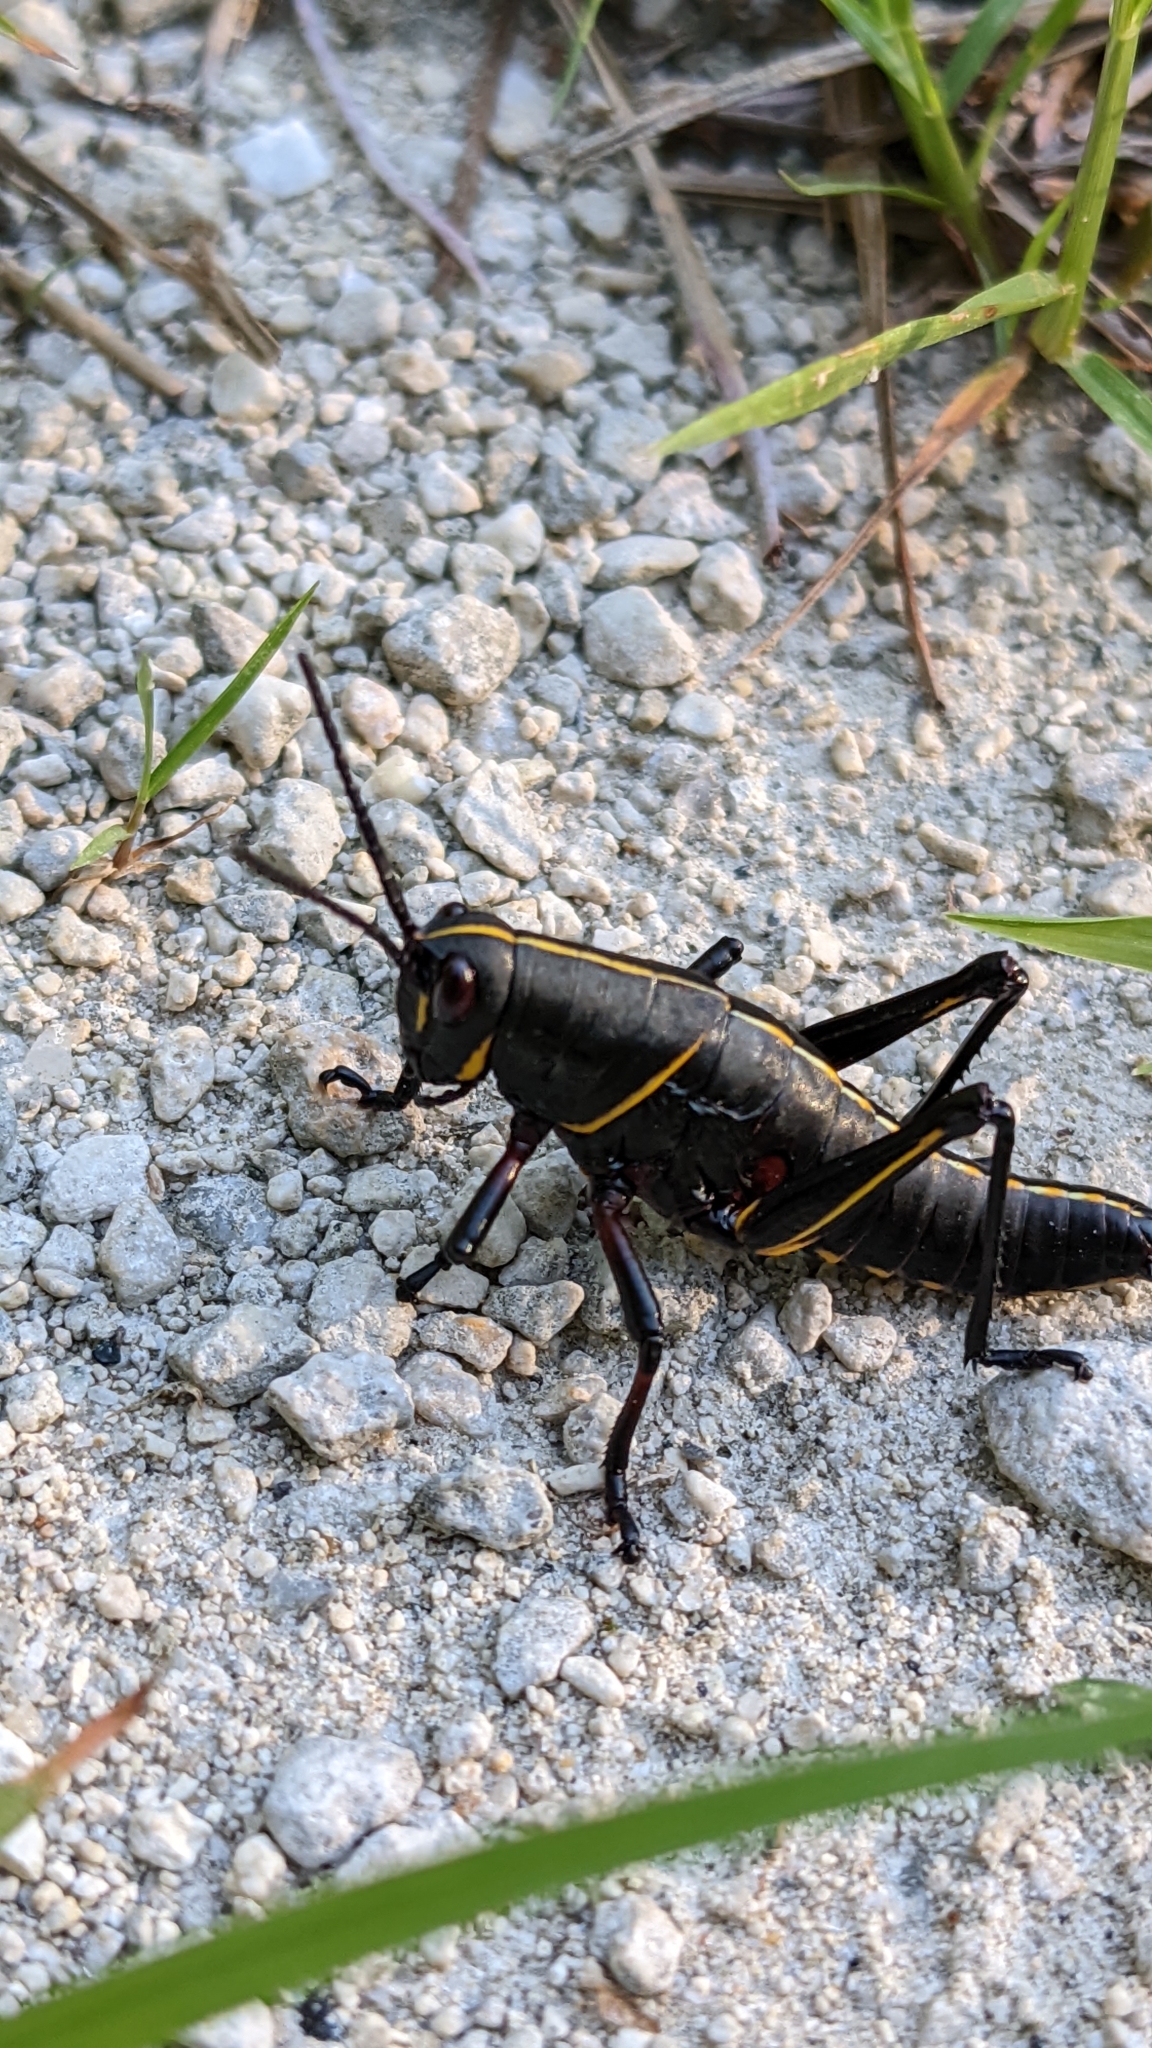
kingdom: Animalia
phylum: Arthropoda
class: Insecta
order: Orthoptera
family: Romaleidae
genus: Romalea
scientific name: Romalea microptera
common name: Eastern lubber grasshopper
